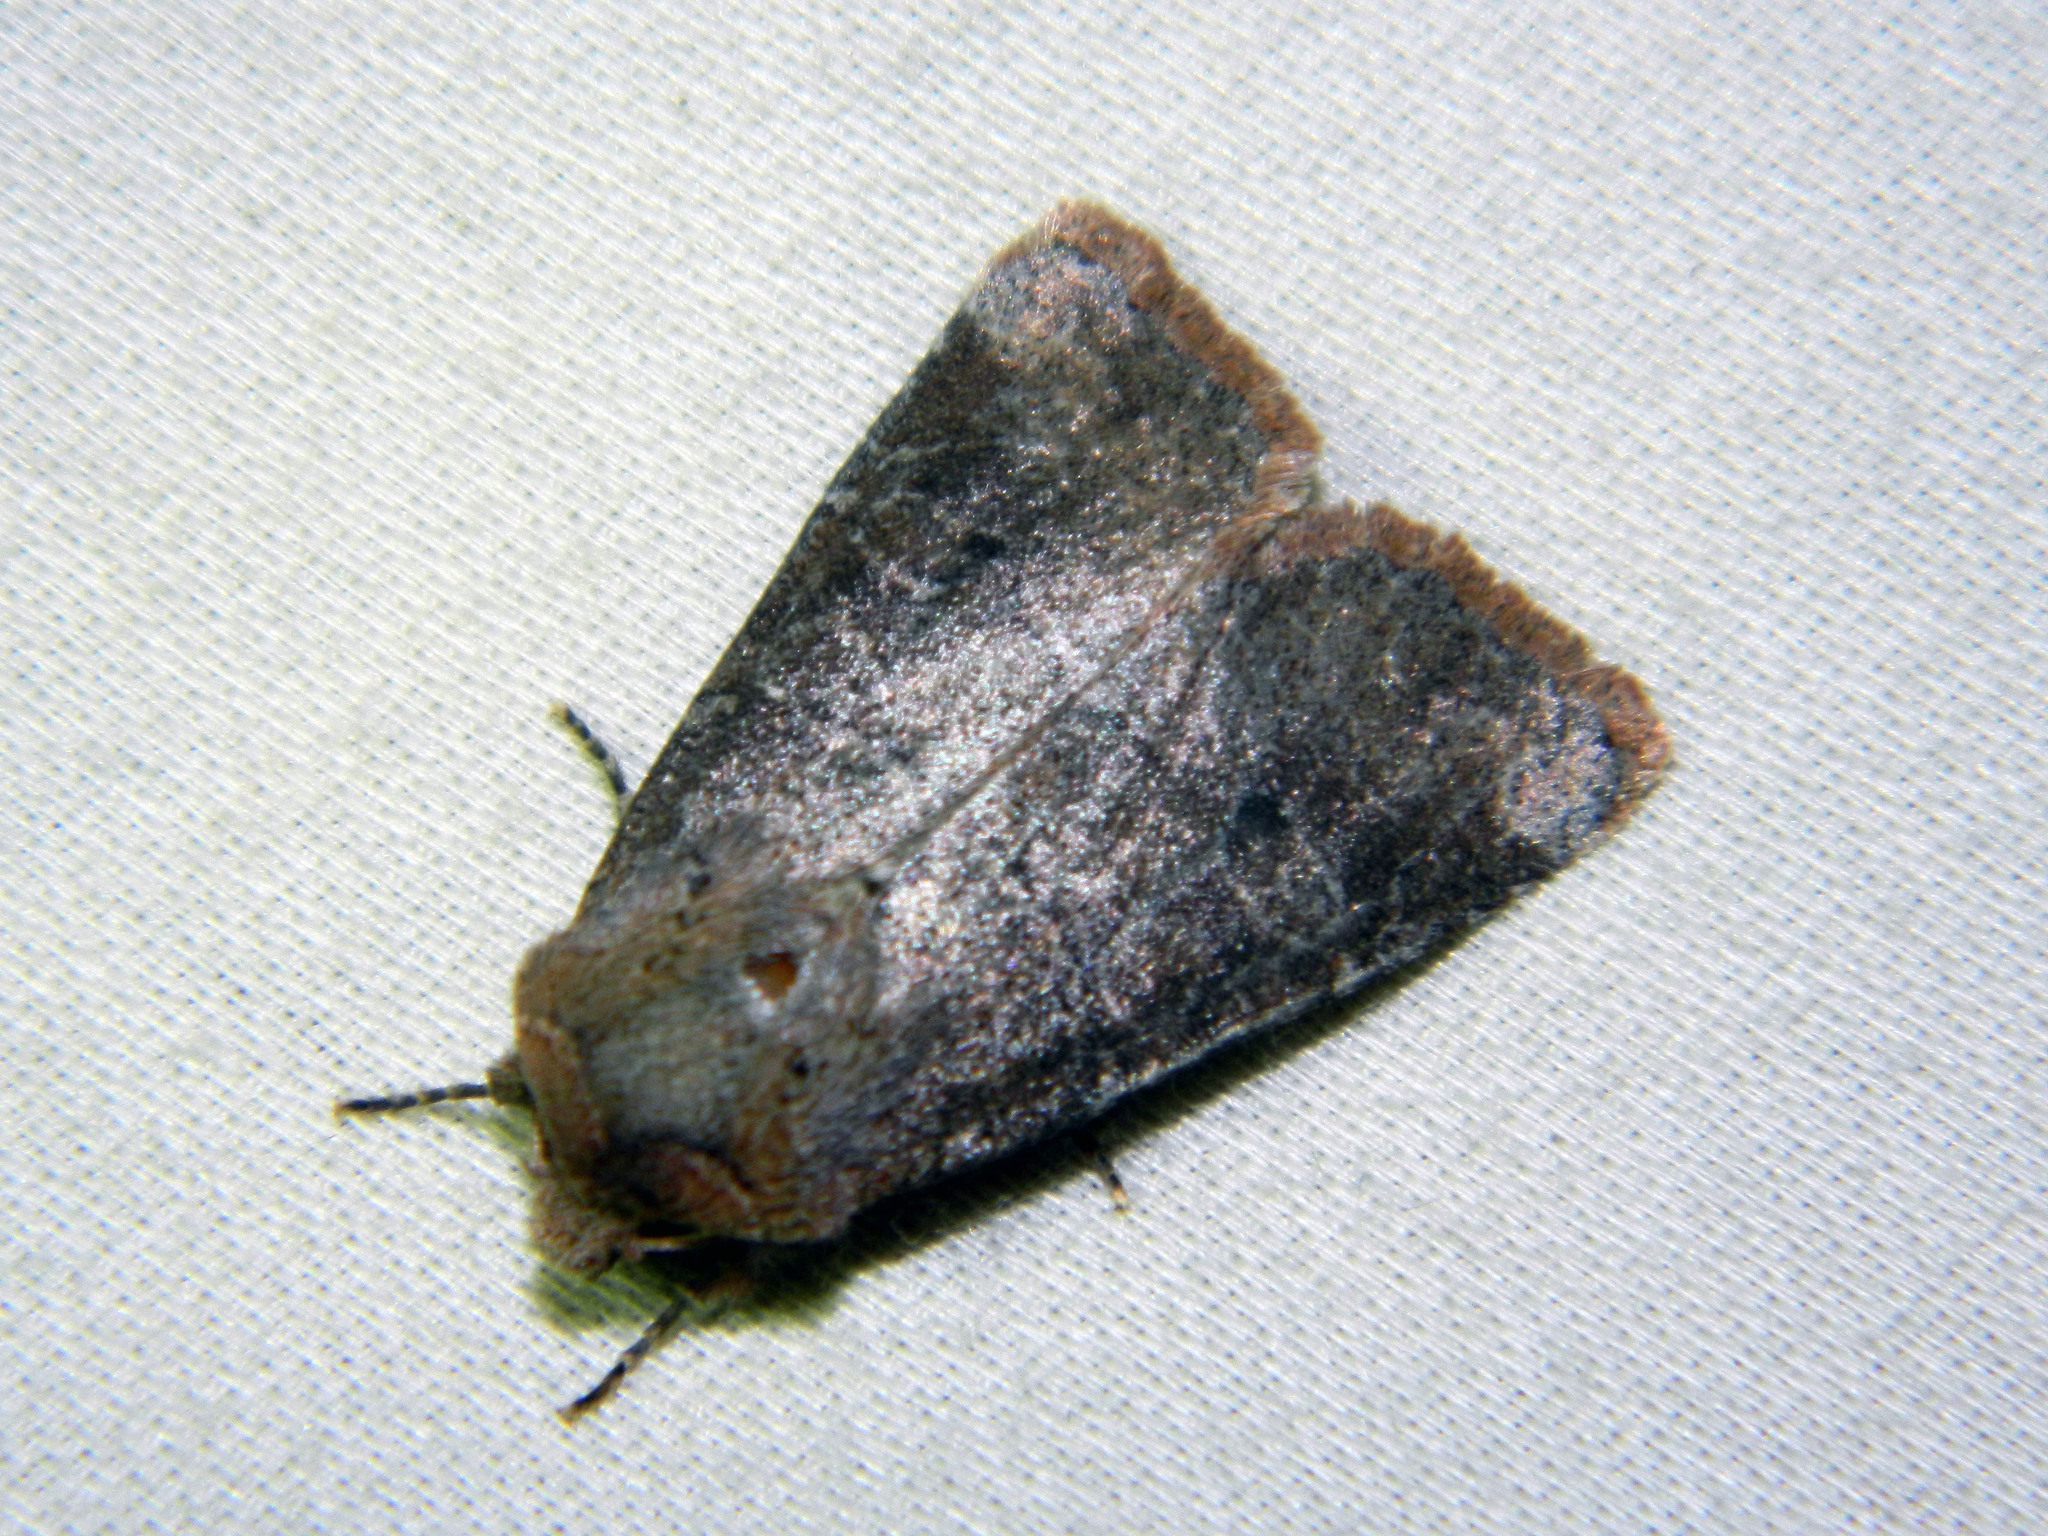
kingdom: Animalia
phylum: Arthropoda
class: Insecta
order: Lepidoptera
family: Noctuidae
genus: Crocigrapha
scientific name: Crocigrapha normani
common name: Norman's quaker
